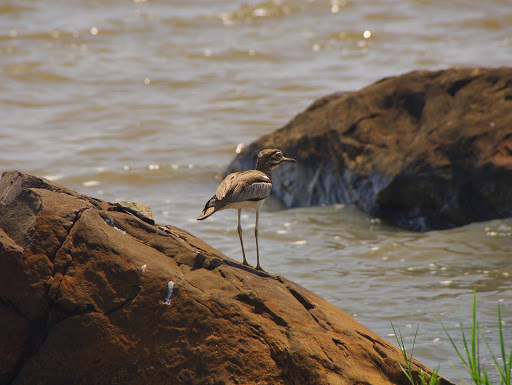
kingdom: Animalia
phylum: Chordata
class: Aves
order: Charadriiformes
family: Burhinidae
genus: Burhinus
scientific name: Burhinus vermiculatus
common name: Water thick-knee
